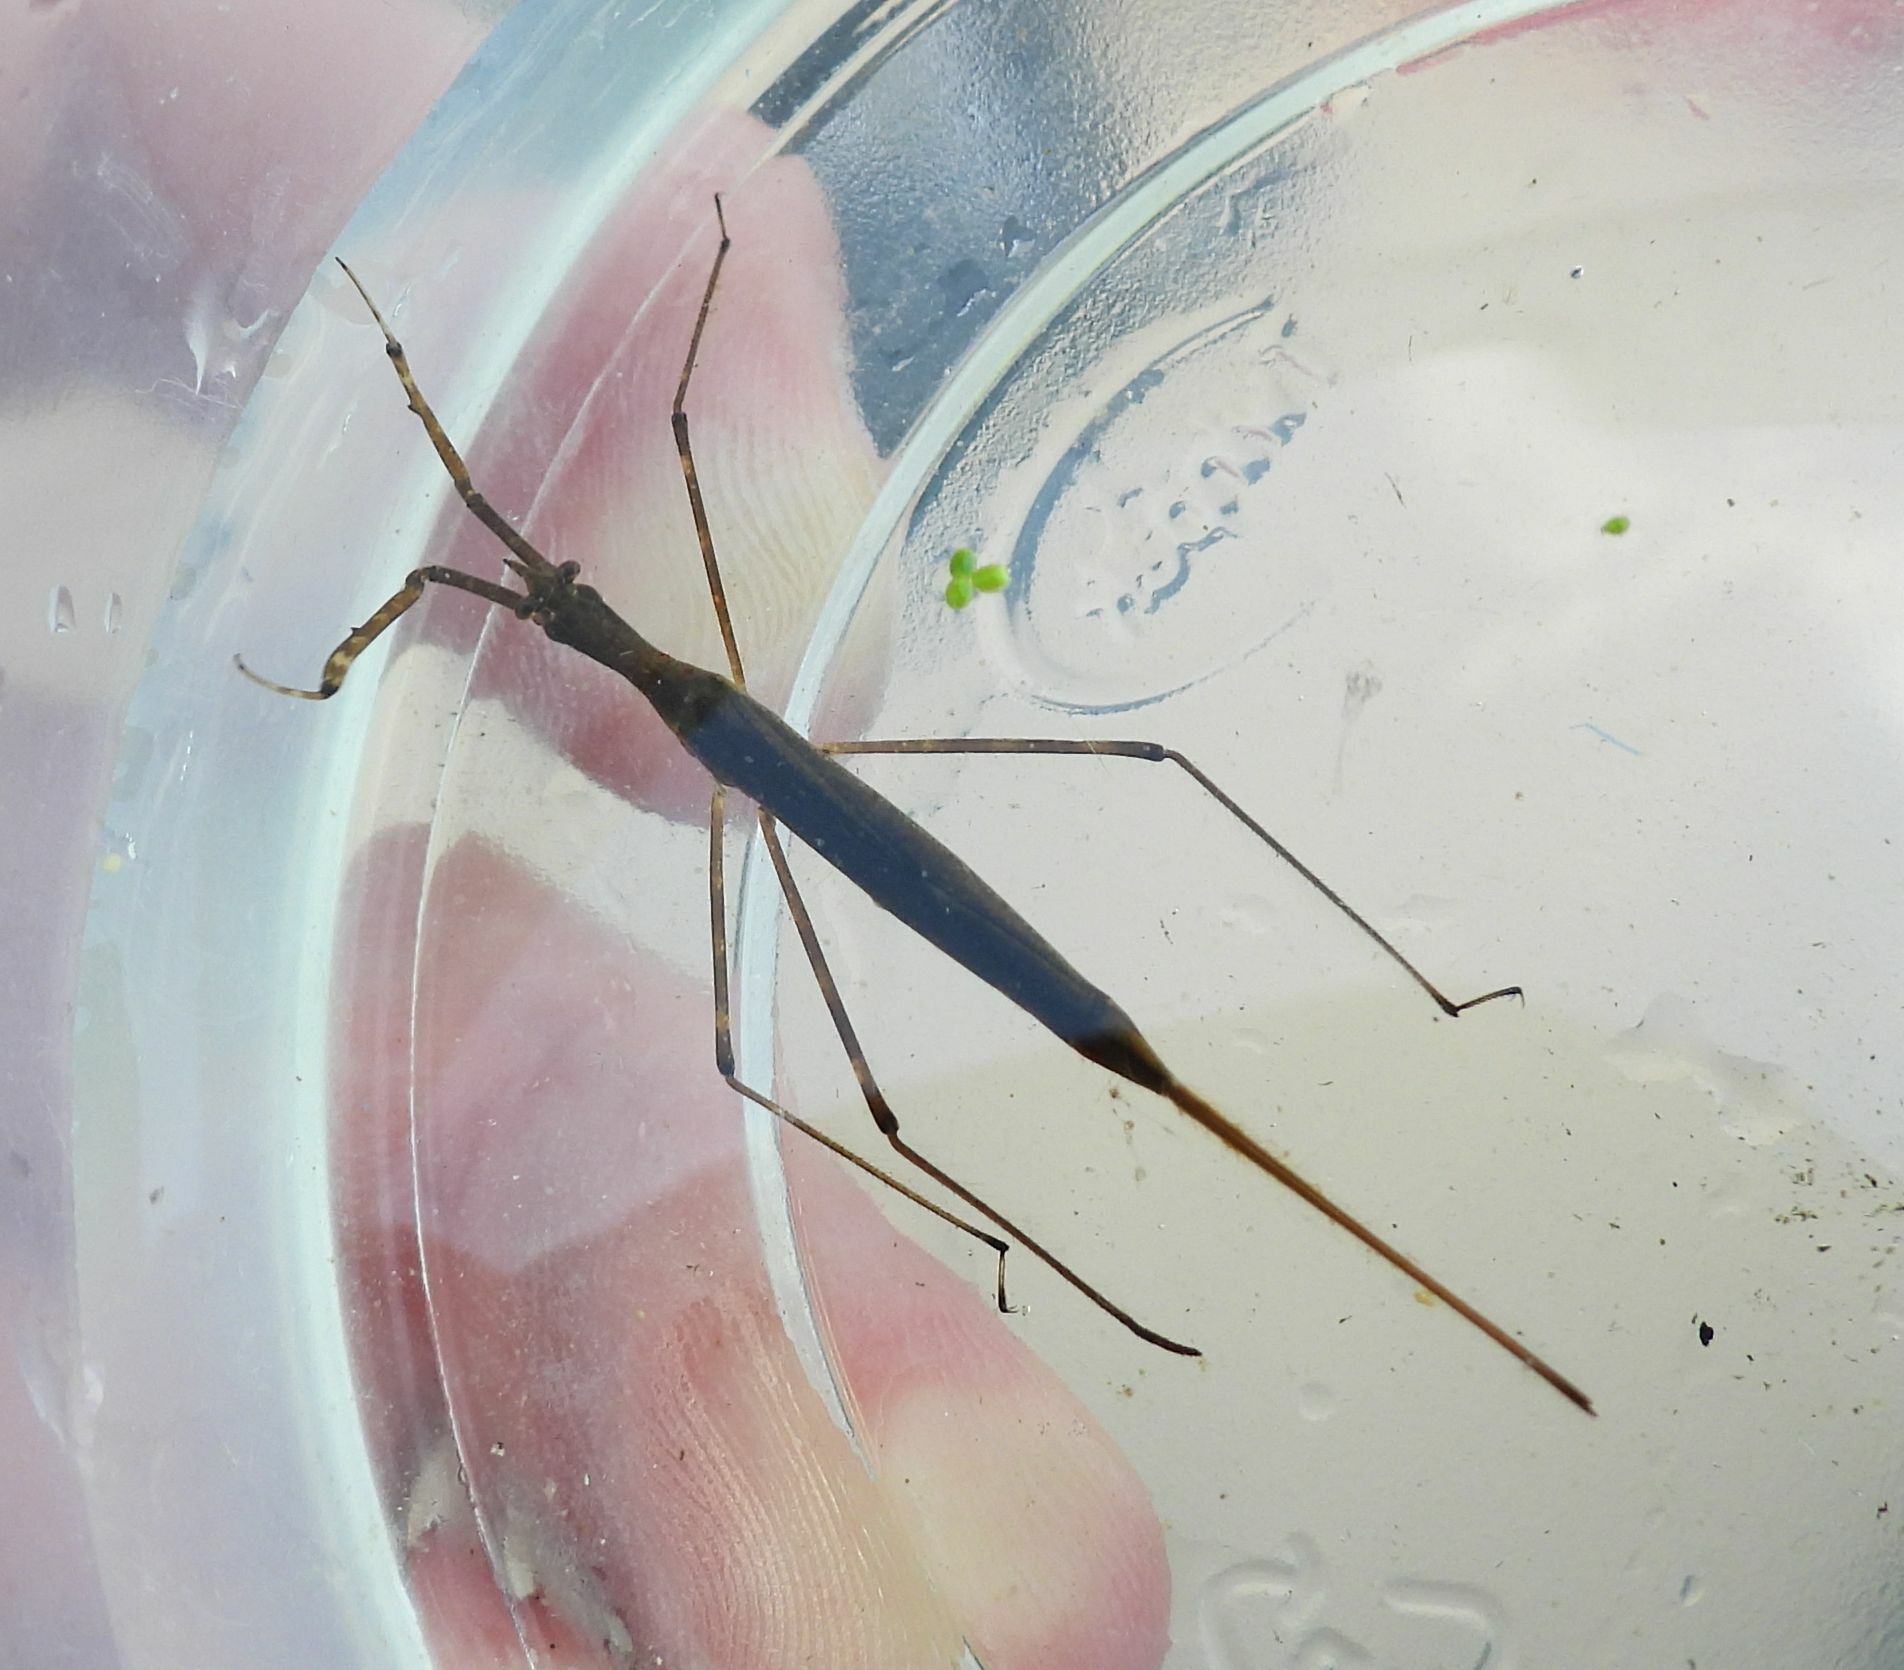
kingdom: Animalia
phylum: Arthropoda
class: Insecta
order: Hemiptera
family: Nepidae
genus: Ranatra
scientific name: Ranatra
